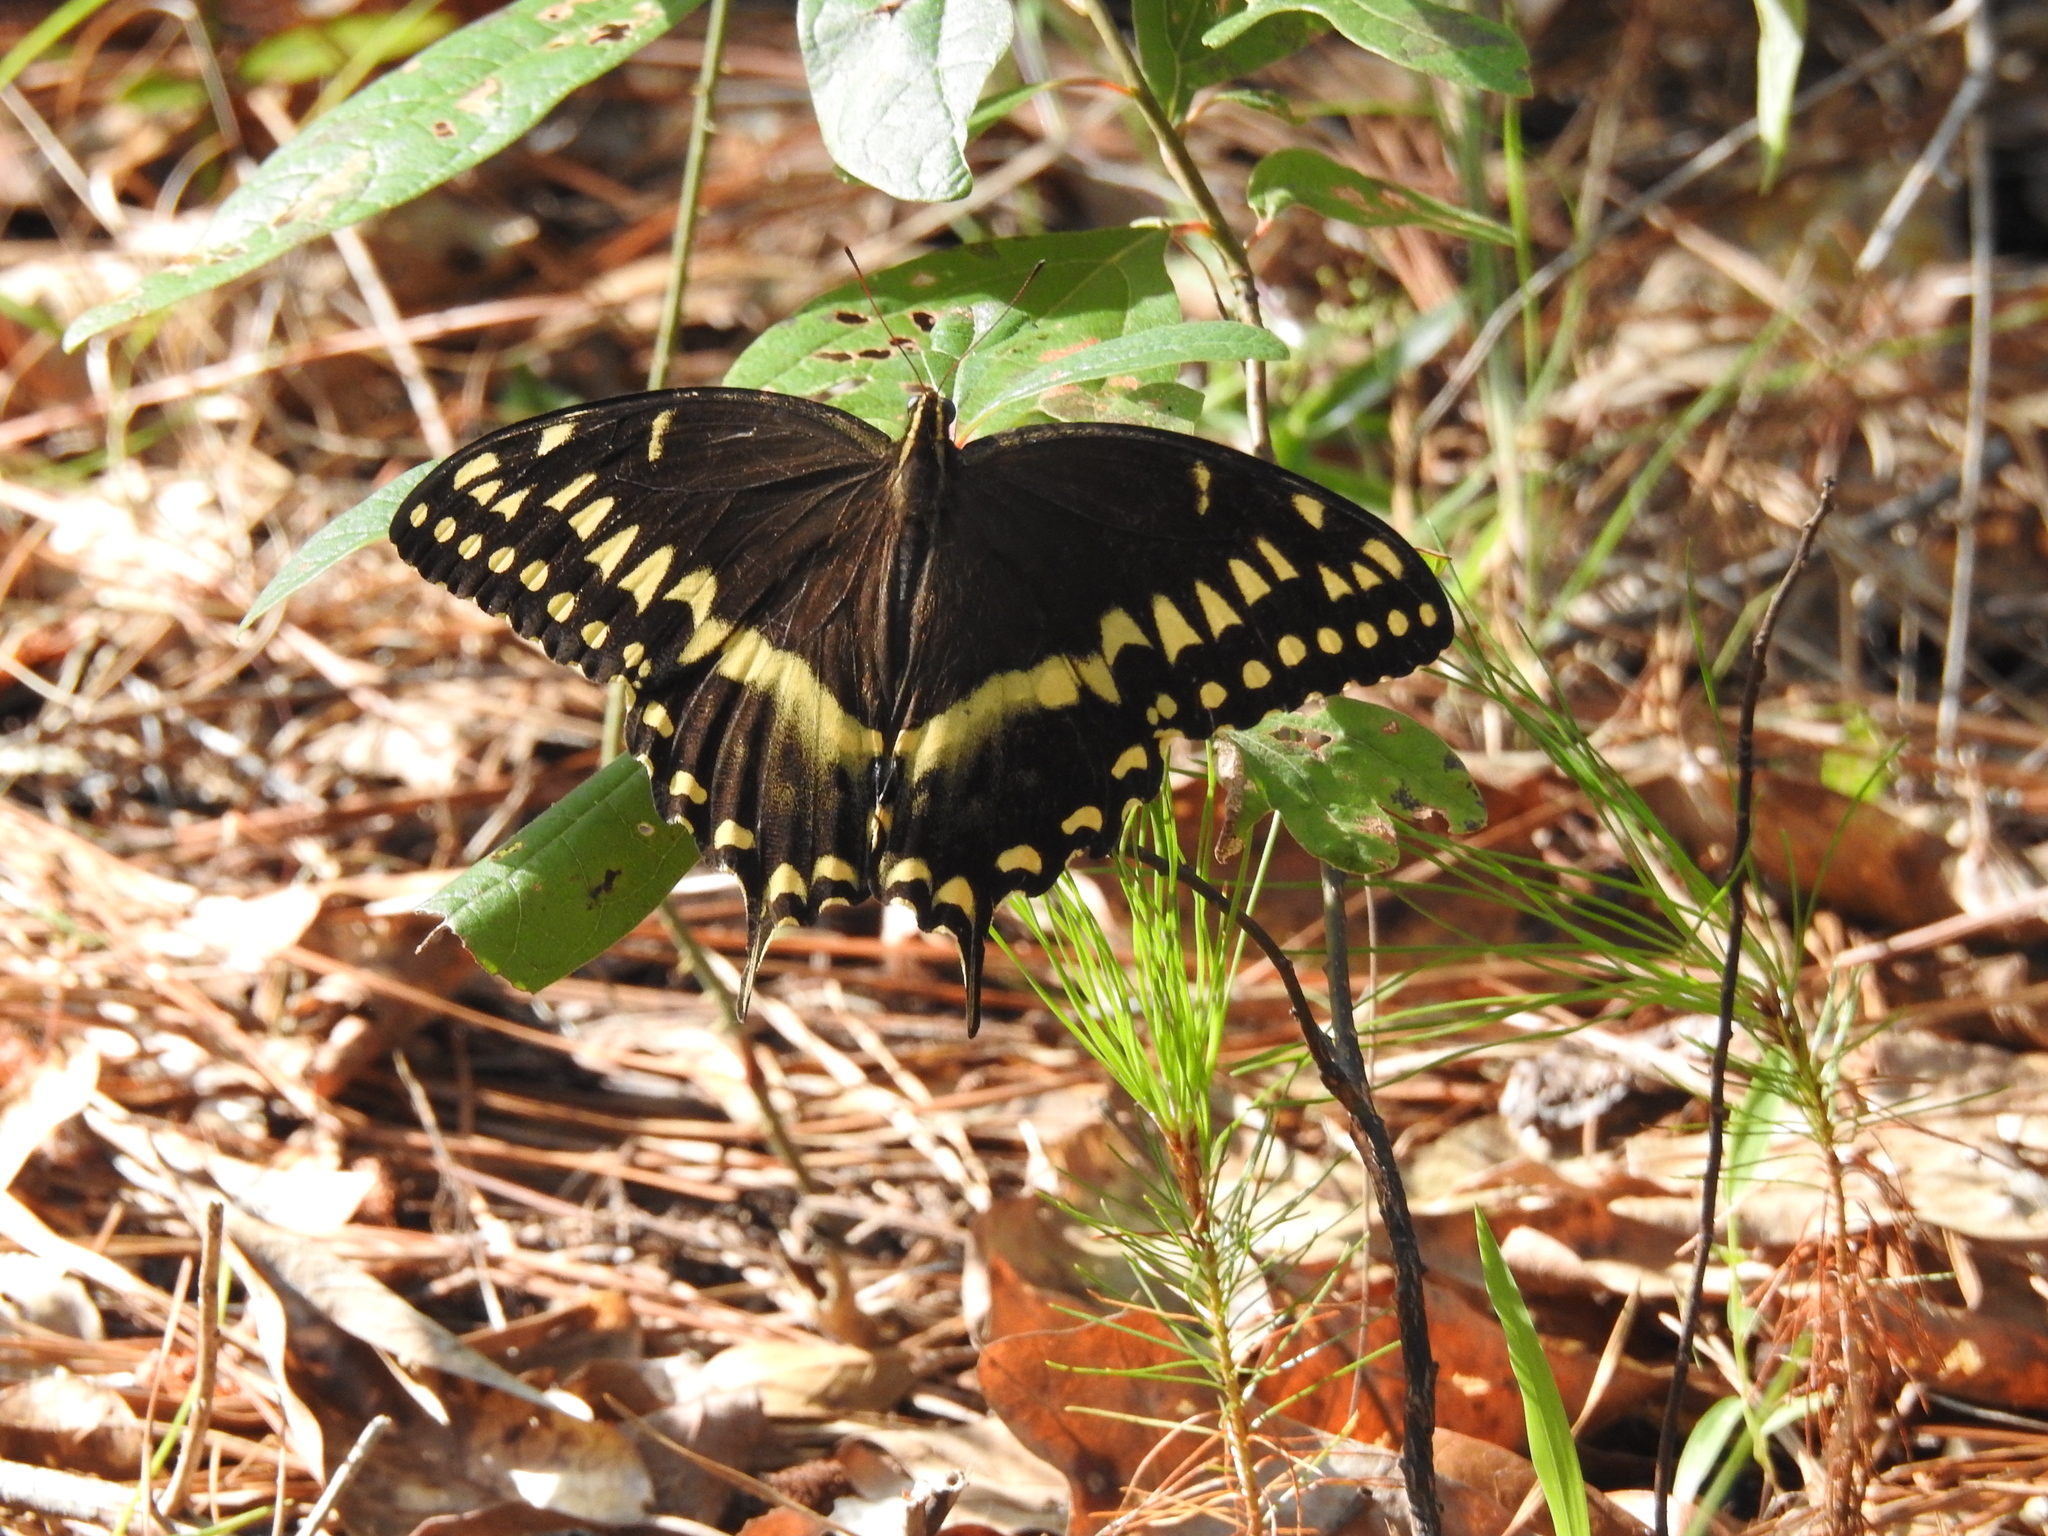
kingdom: Animalia
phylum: Arthropoda
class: Insecta
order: Lepidoptera
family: Papilionidae
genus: Papilio
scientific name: Papilio palamedes
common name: Palamedes swallowtail
